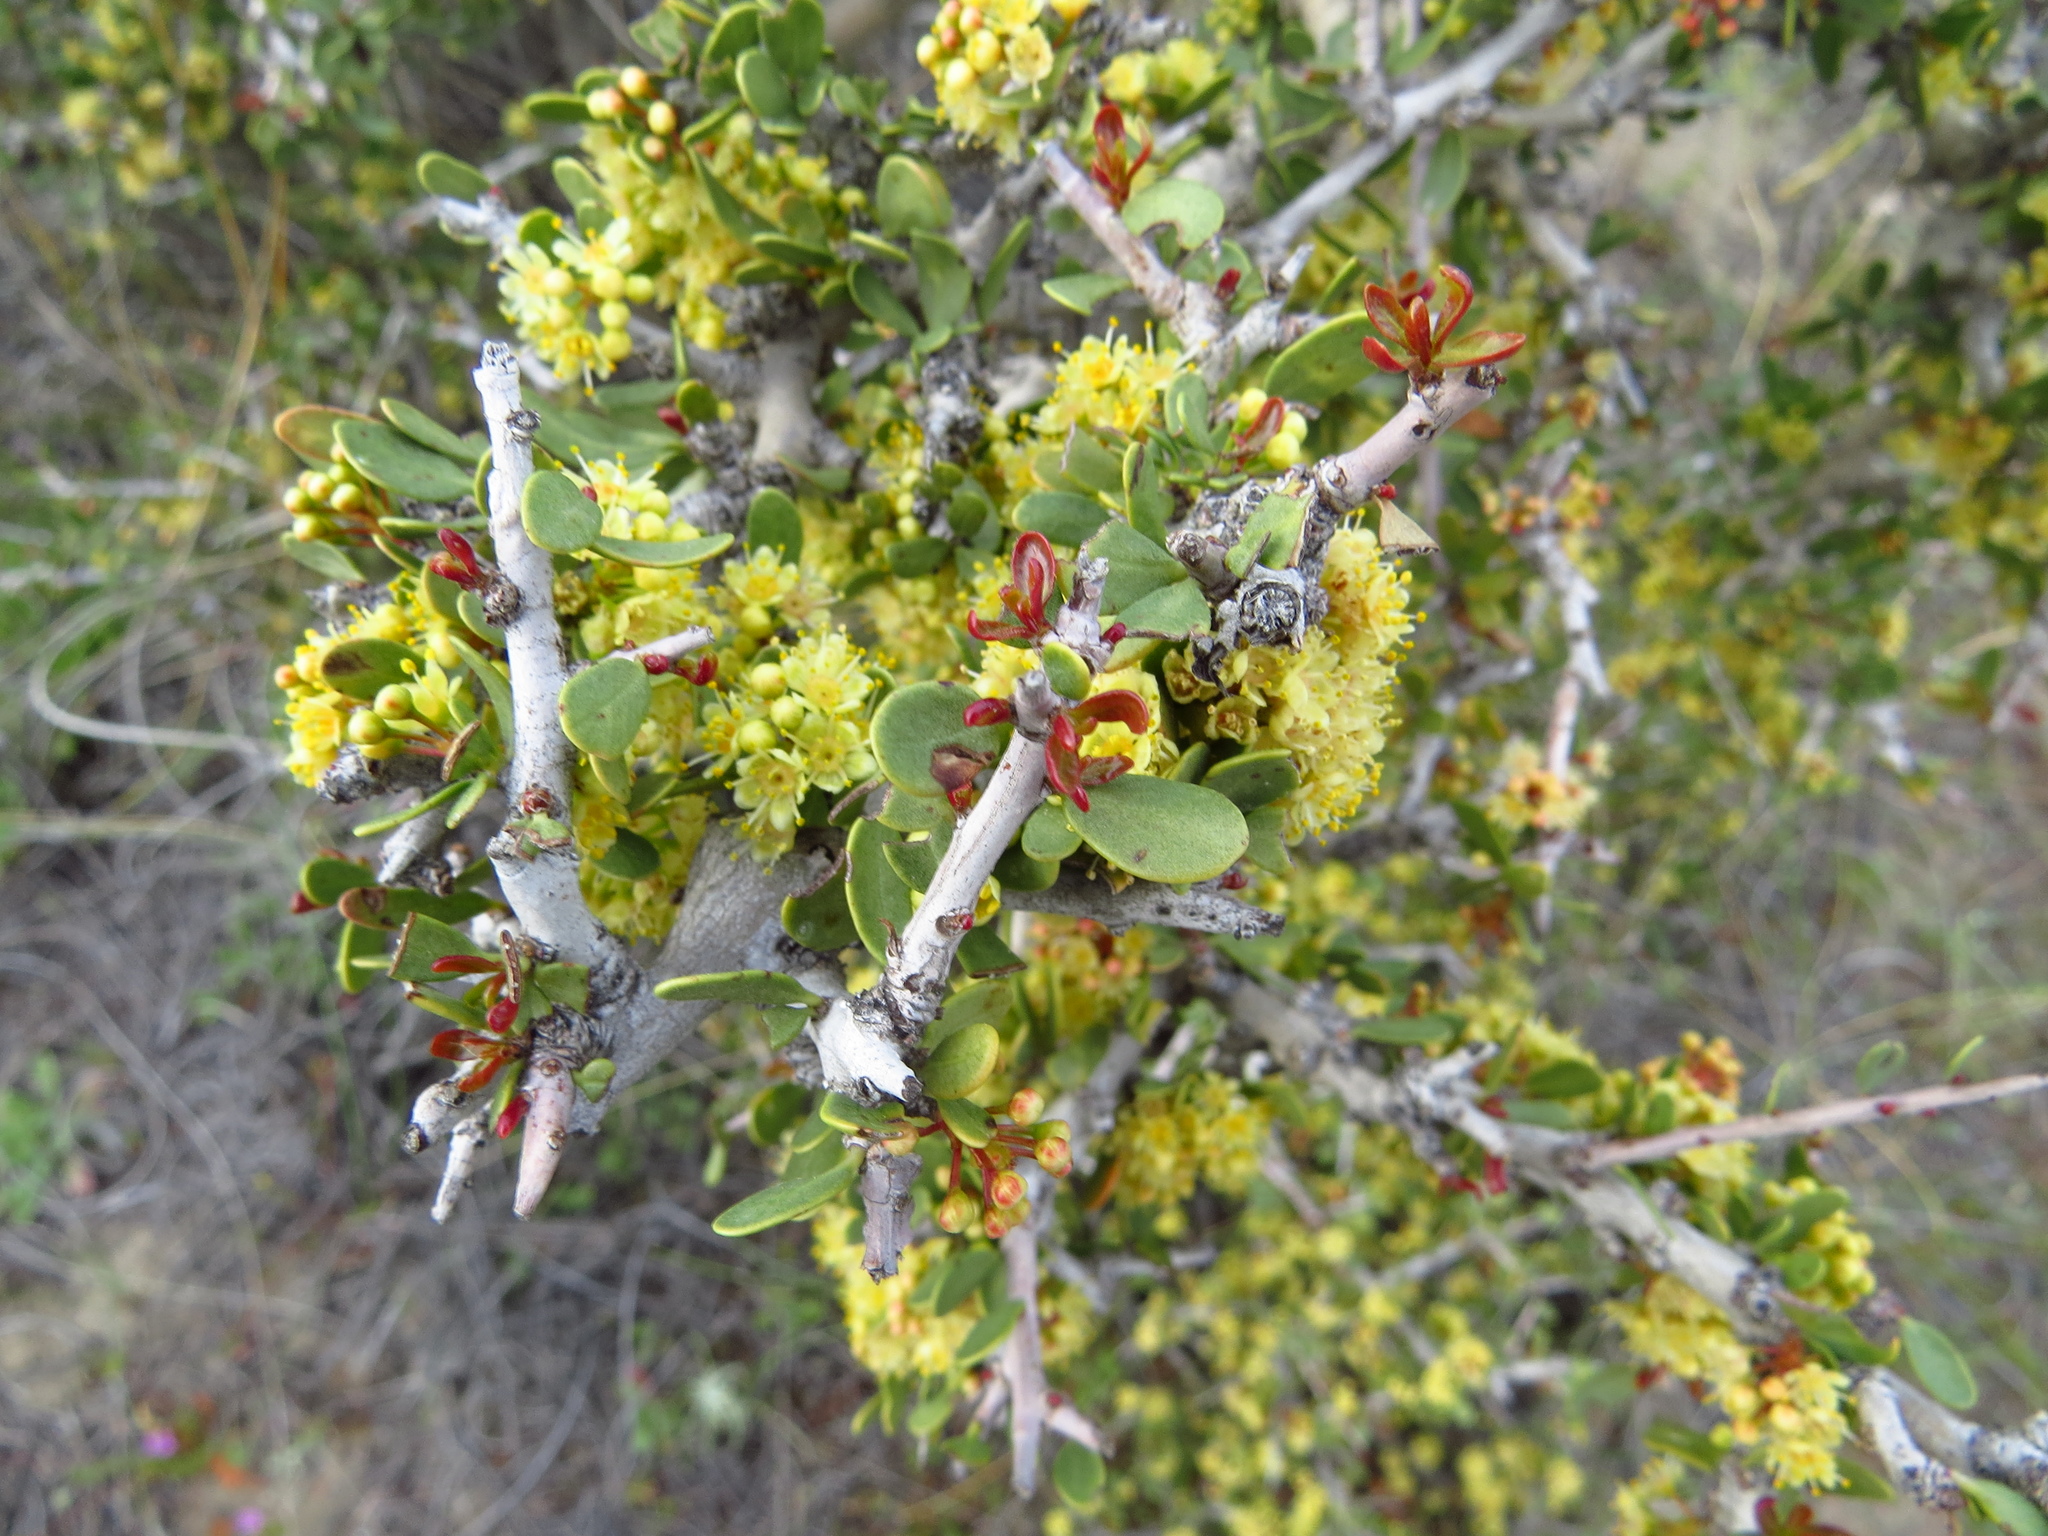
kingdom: Plantae
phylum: Tracheophyta
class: Magnoliopsida
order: Sapindales
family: Anacardiaceae
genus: Schinus
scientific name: Schinus johnstonii
